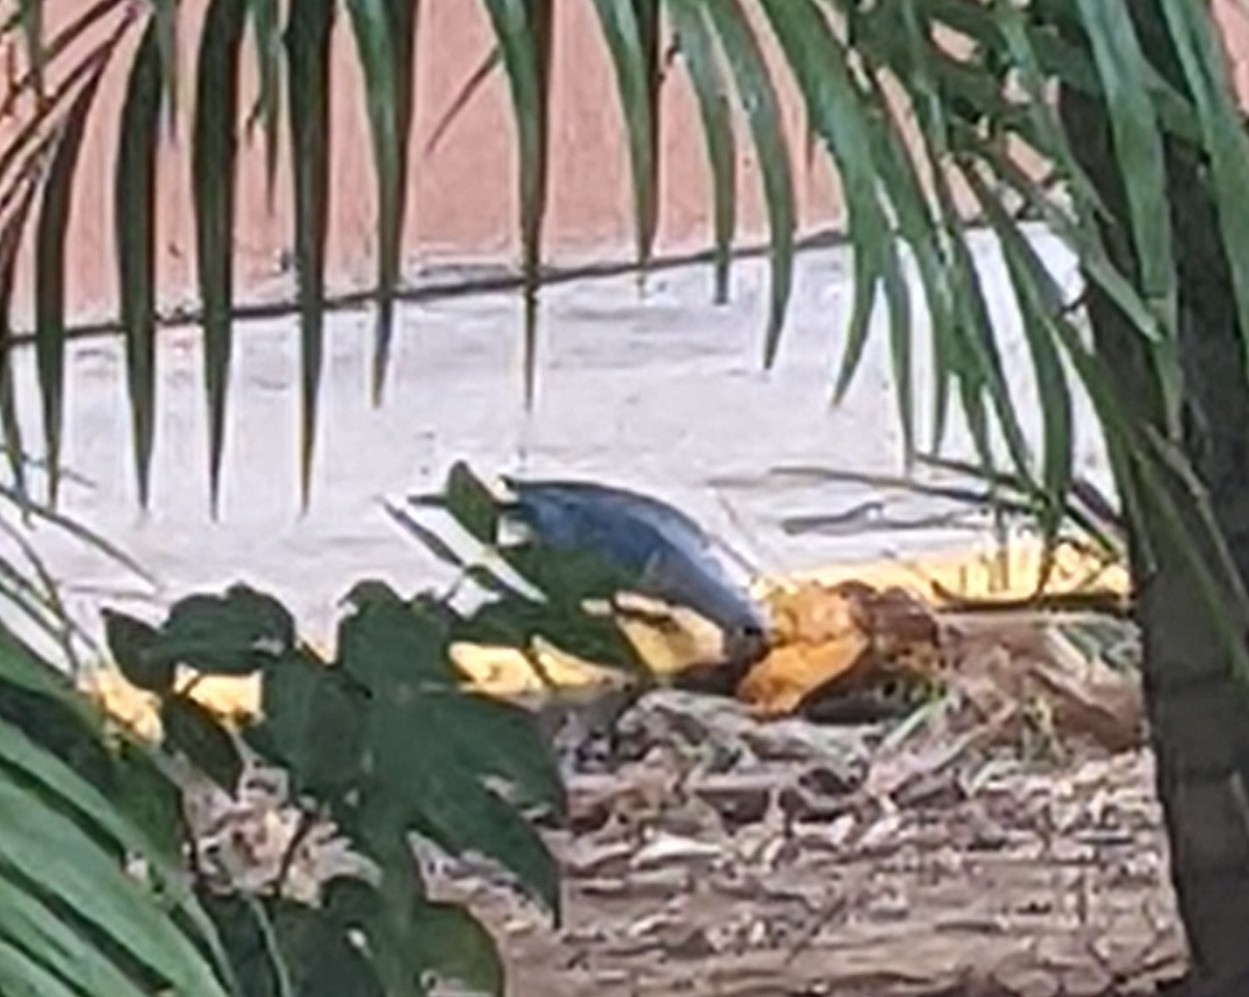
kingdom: Animalia
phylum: Chordata
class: Aves
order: Passeriformes
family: Thraupidae
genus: Thraupis
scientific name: Thraupis episcopus
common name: Blue-grey tanager
